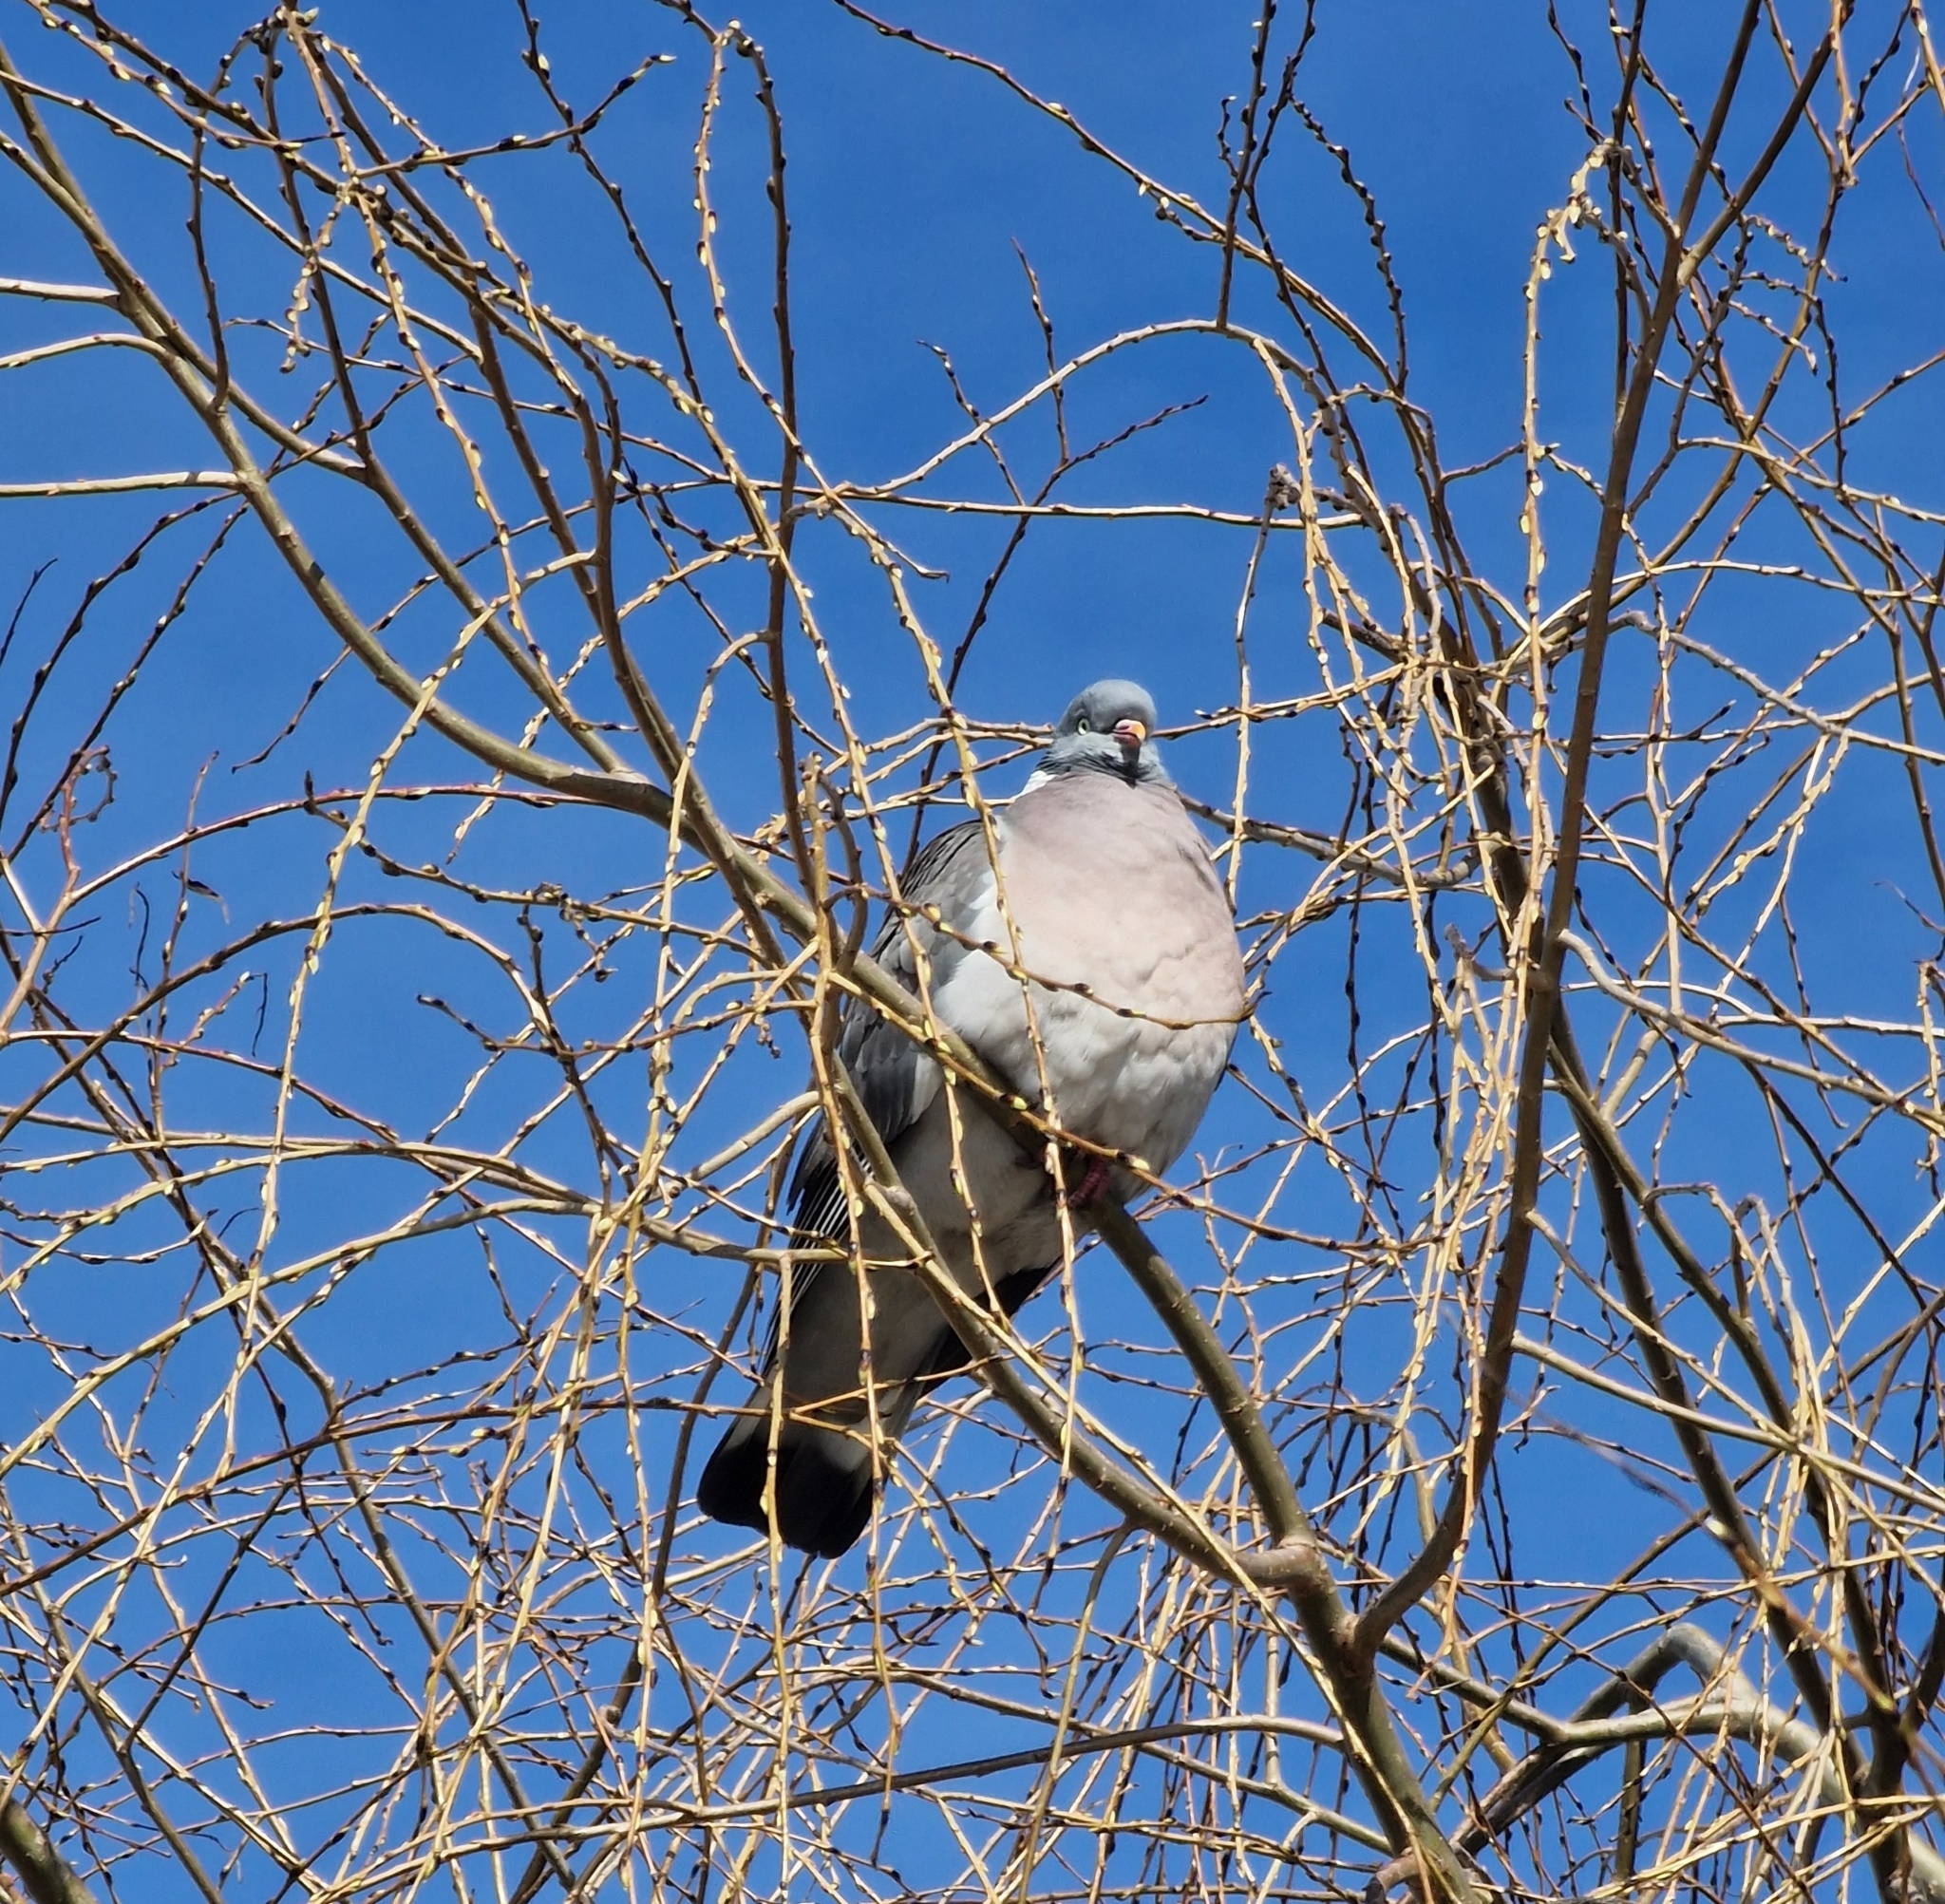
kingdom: Animalia
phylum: Chordata
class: Aves
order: Columbiformes
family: Columbidae
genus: Columba
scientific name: Columba palumbus
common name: Common wood pigeon
